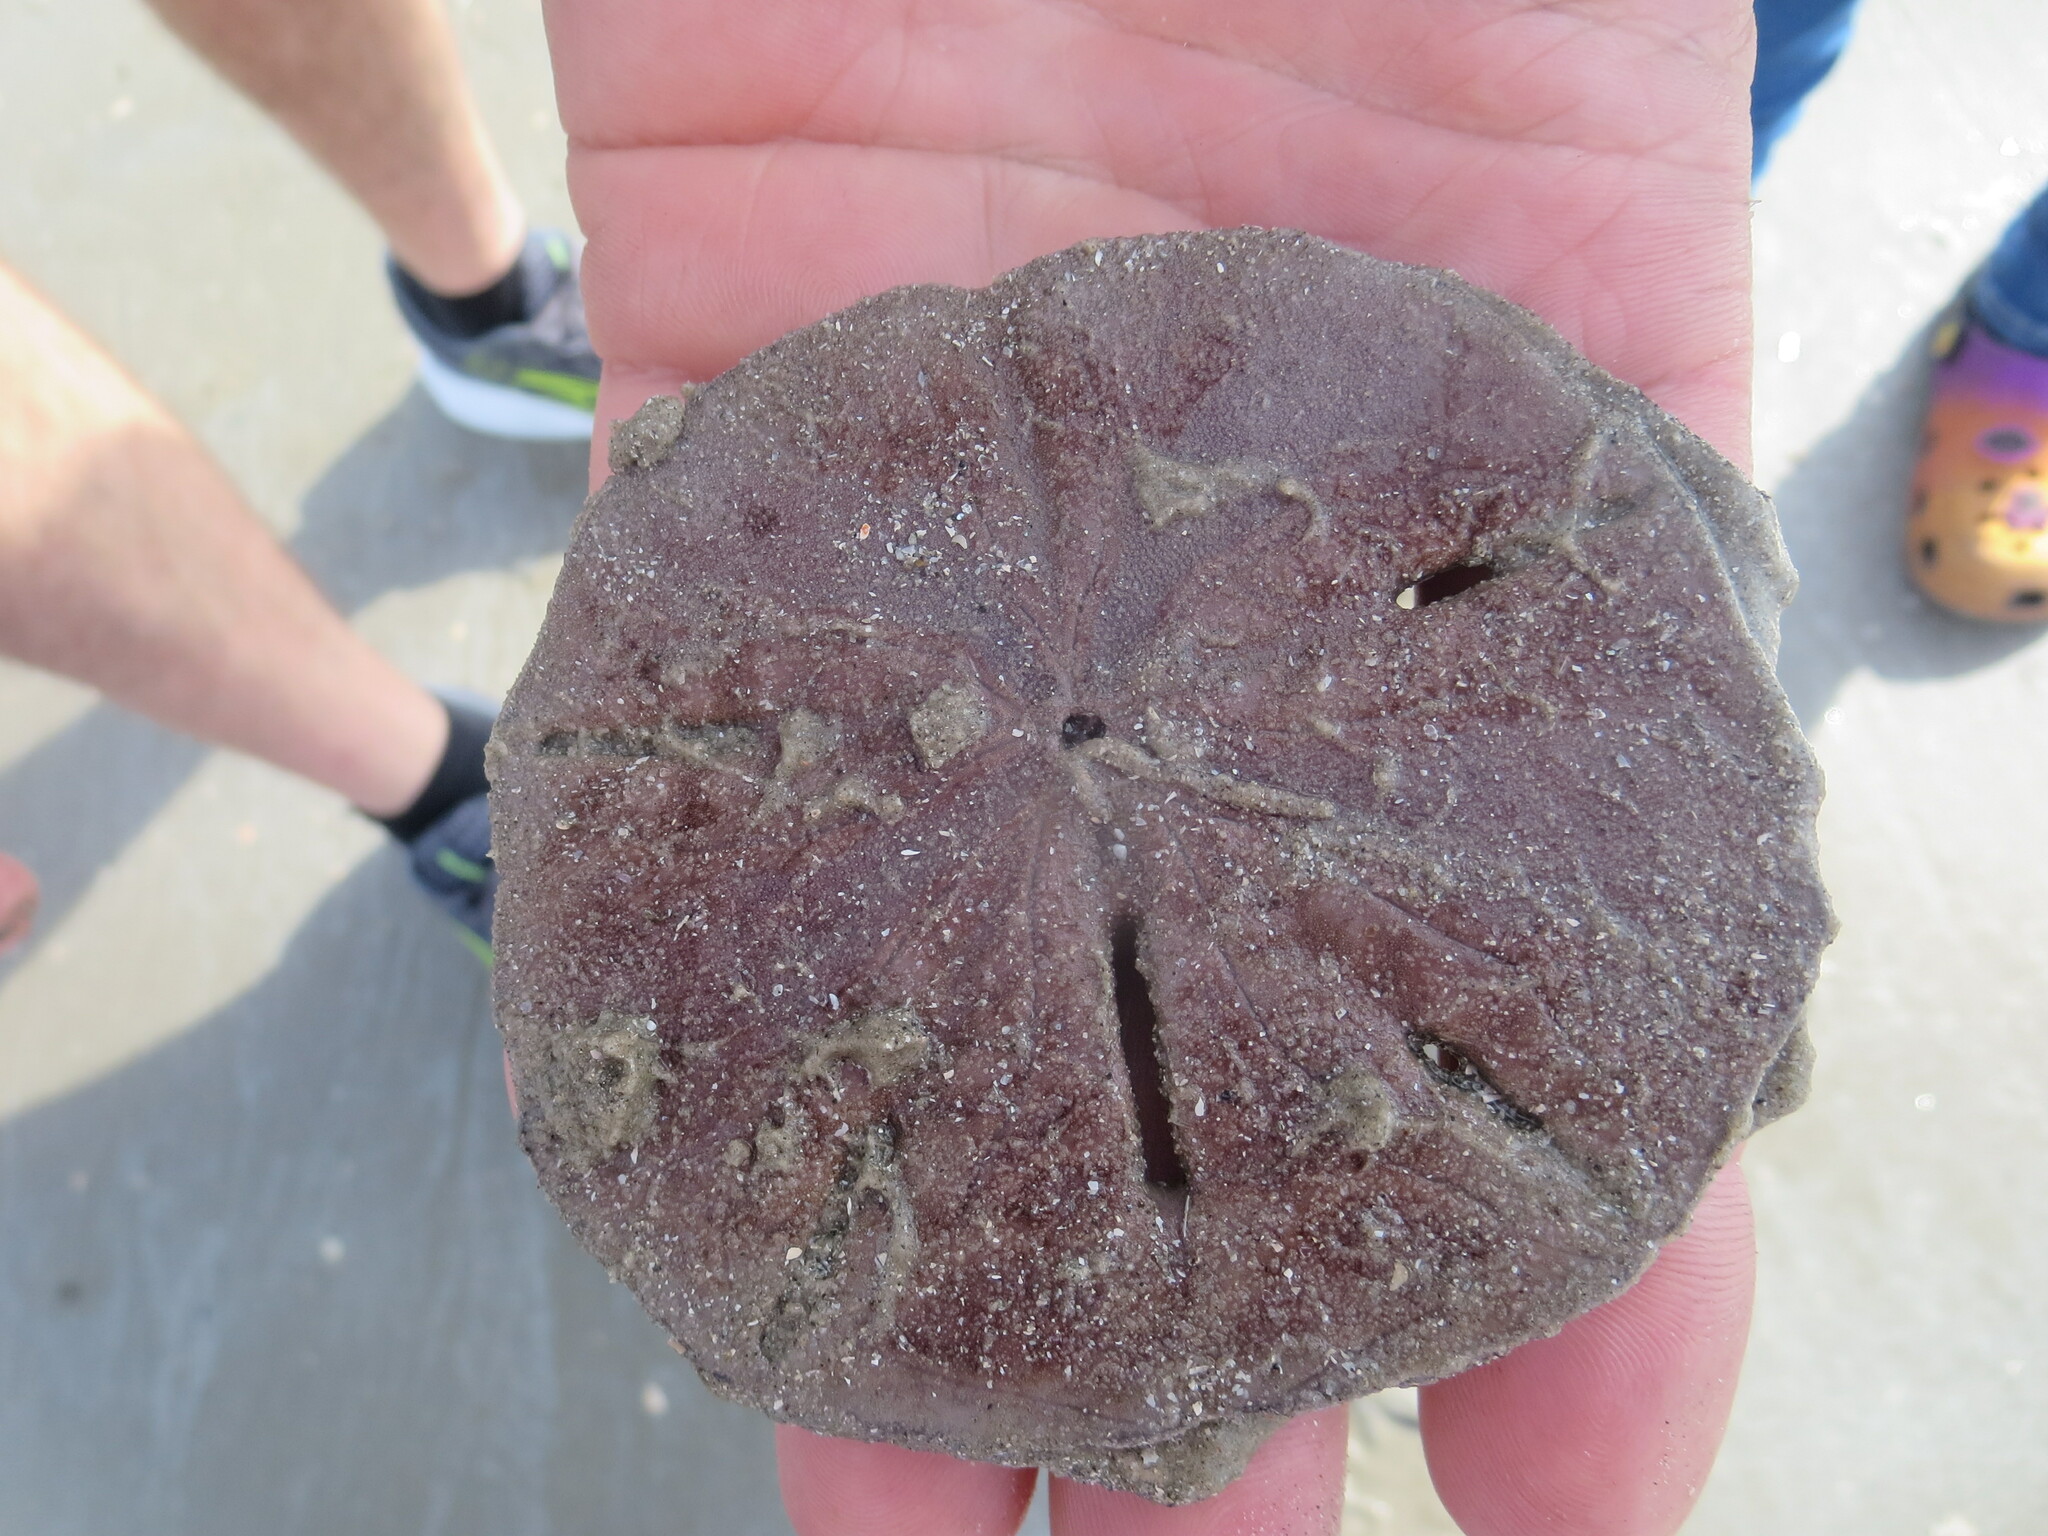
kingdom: Animalia
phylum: Echinodermata
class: Echinoidea
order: Echinolampadacea
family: Mellitidae
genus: Mellita
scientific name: Mellita isometra
